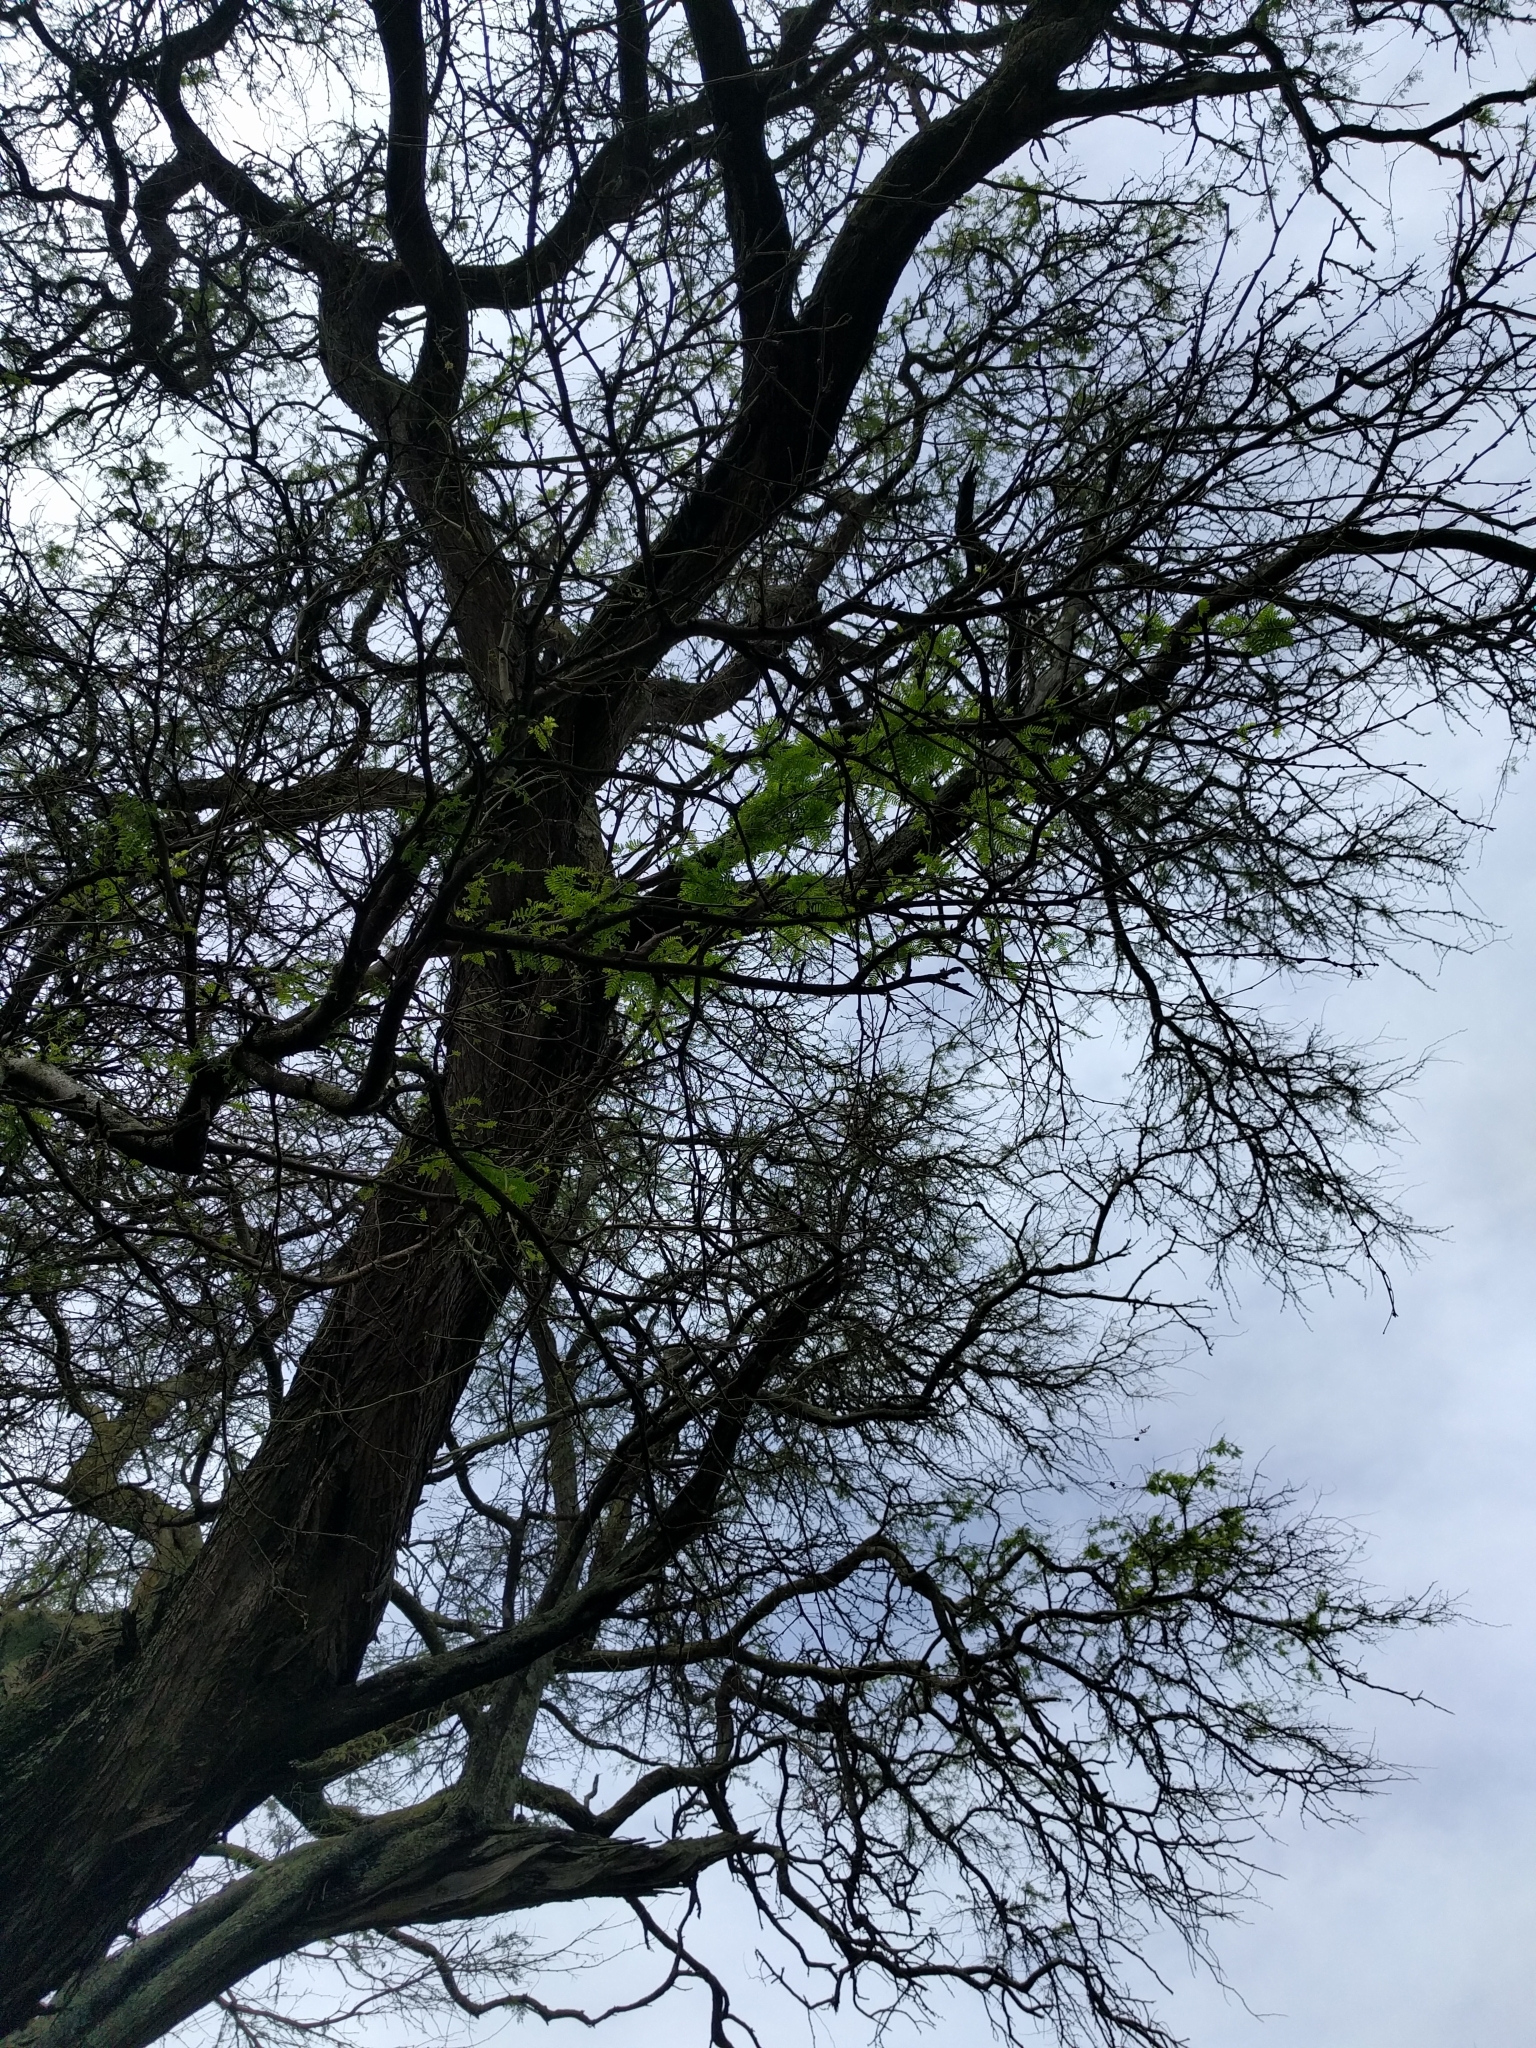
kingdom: Plantae
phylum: Tracheophyta
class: Magnoliopsida
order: Fabales
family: Fabaceae
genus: Prosopis
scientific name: Prosopis pallida
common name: Mesquite
